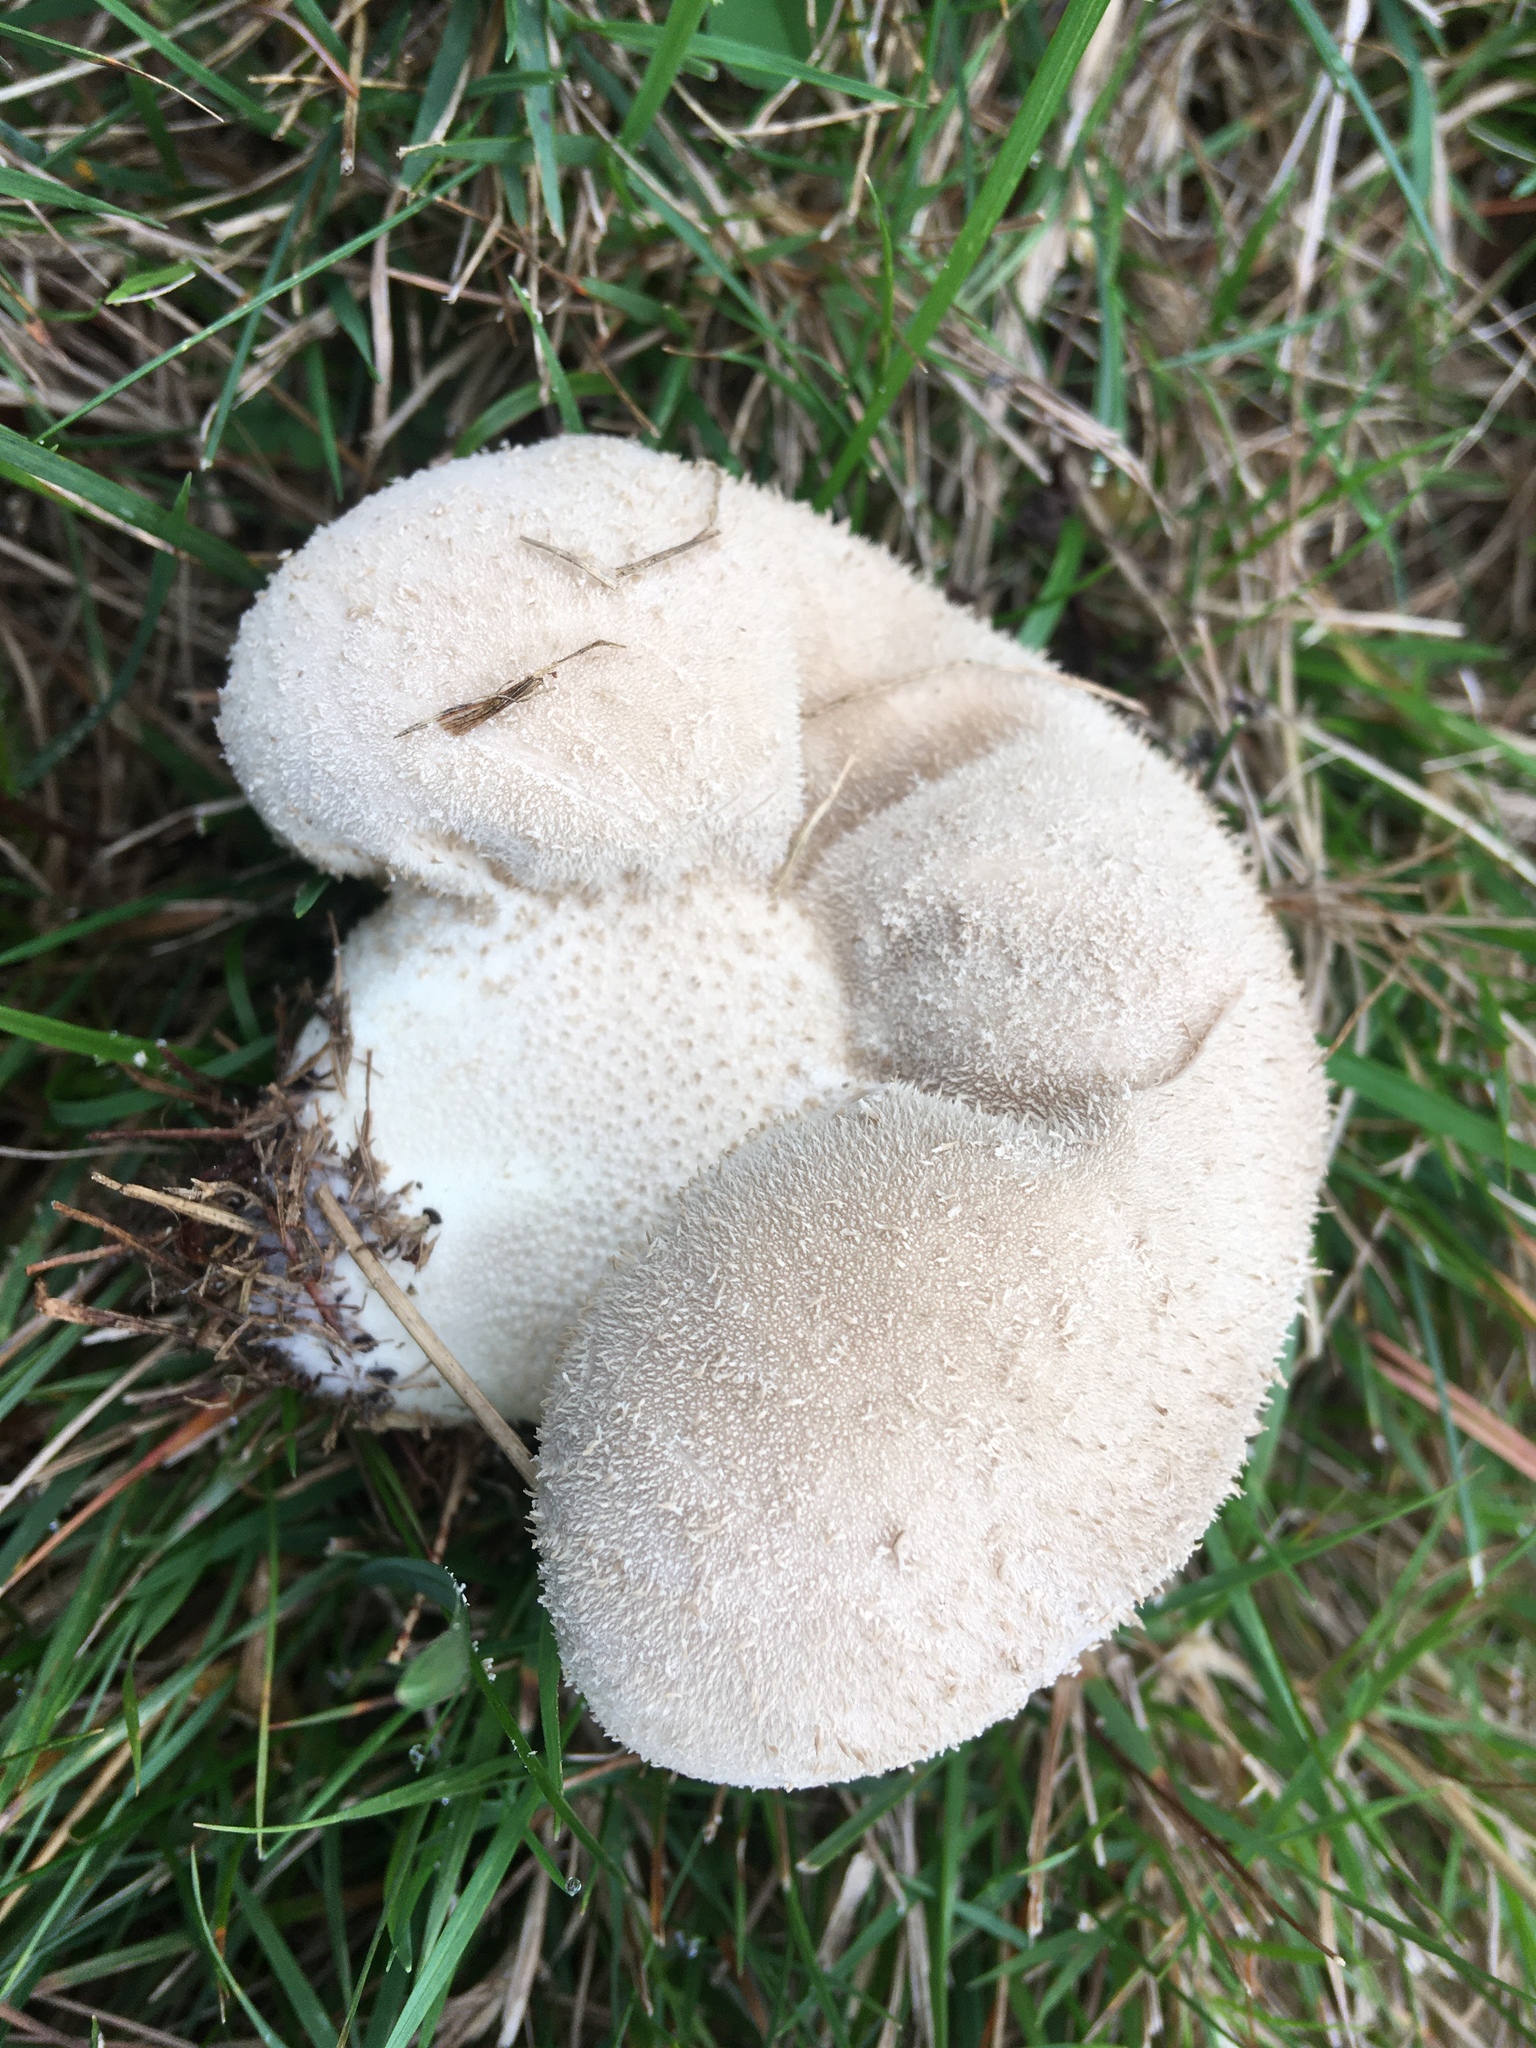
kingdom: Fungi
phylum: Basidiomycota
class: Agaricomycetes
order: Agaricales
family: Lycoperdaceae
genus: Lycoperdon
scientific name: Lycoperdon perlatum
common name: Common puffball
